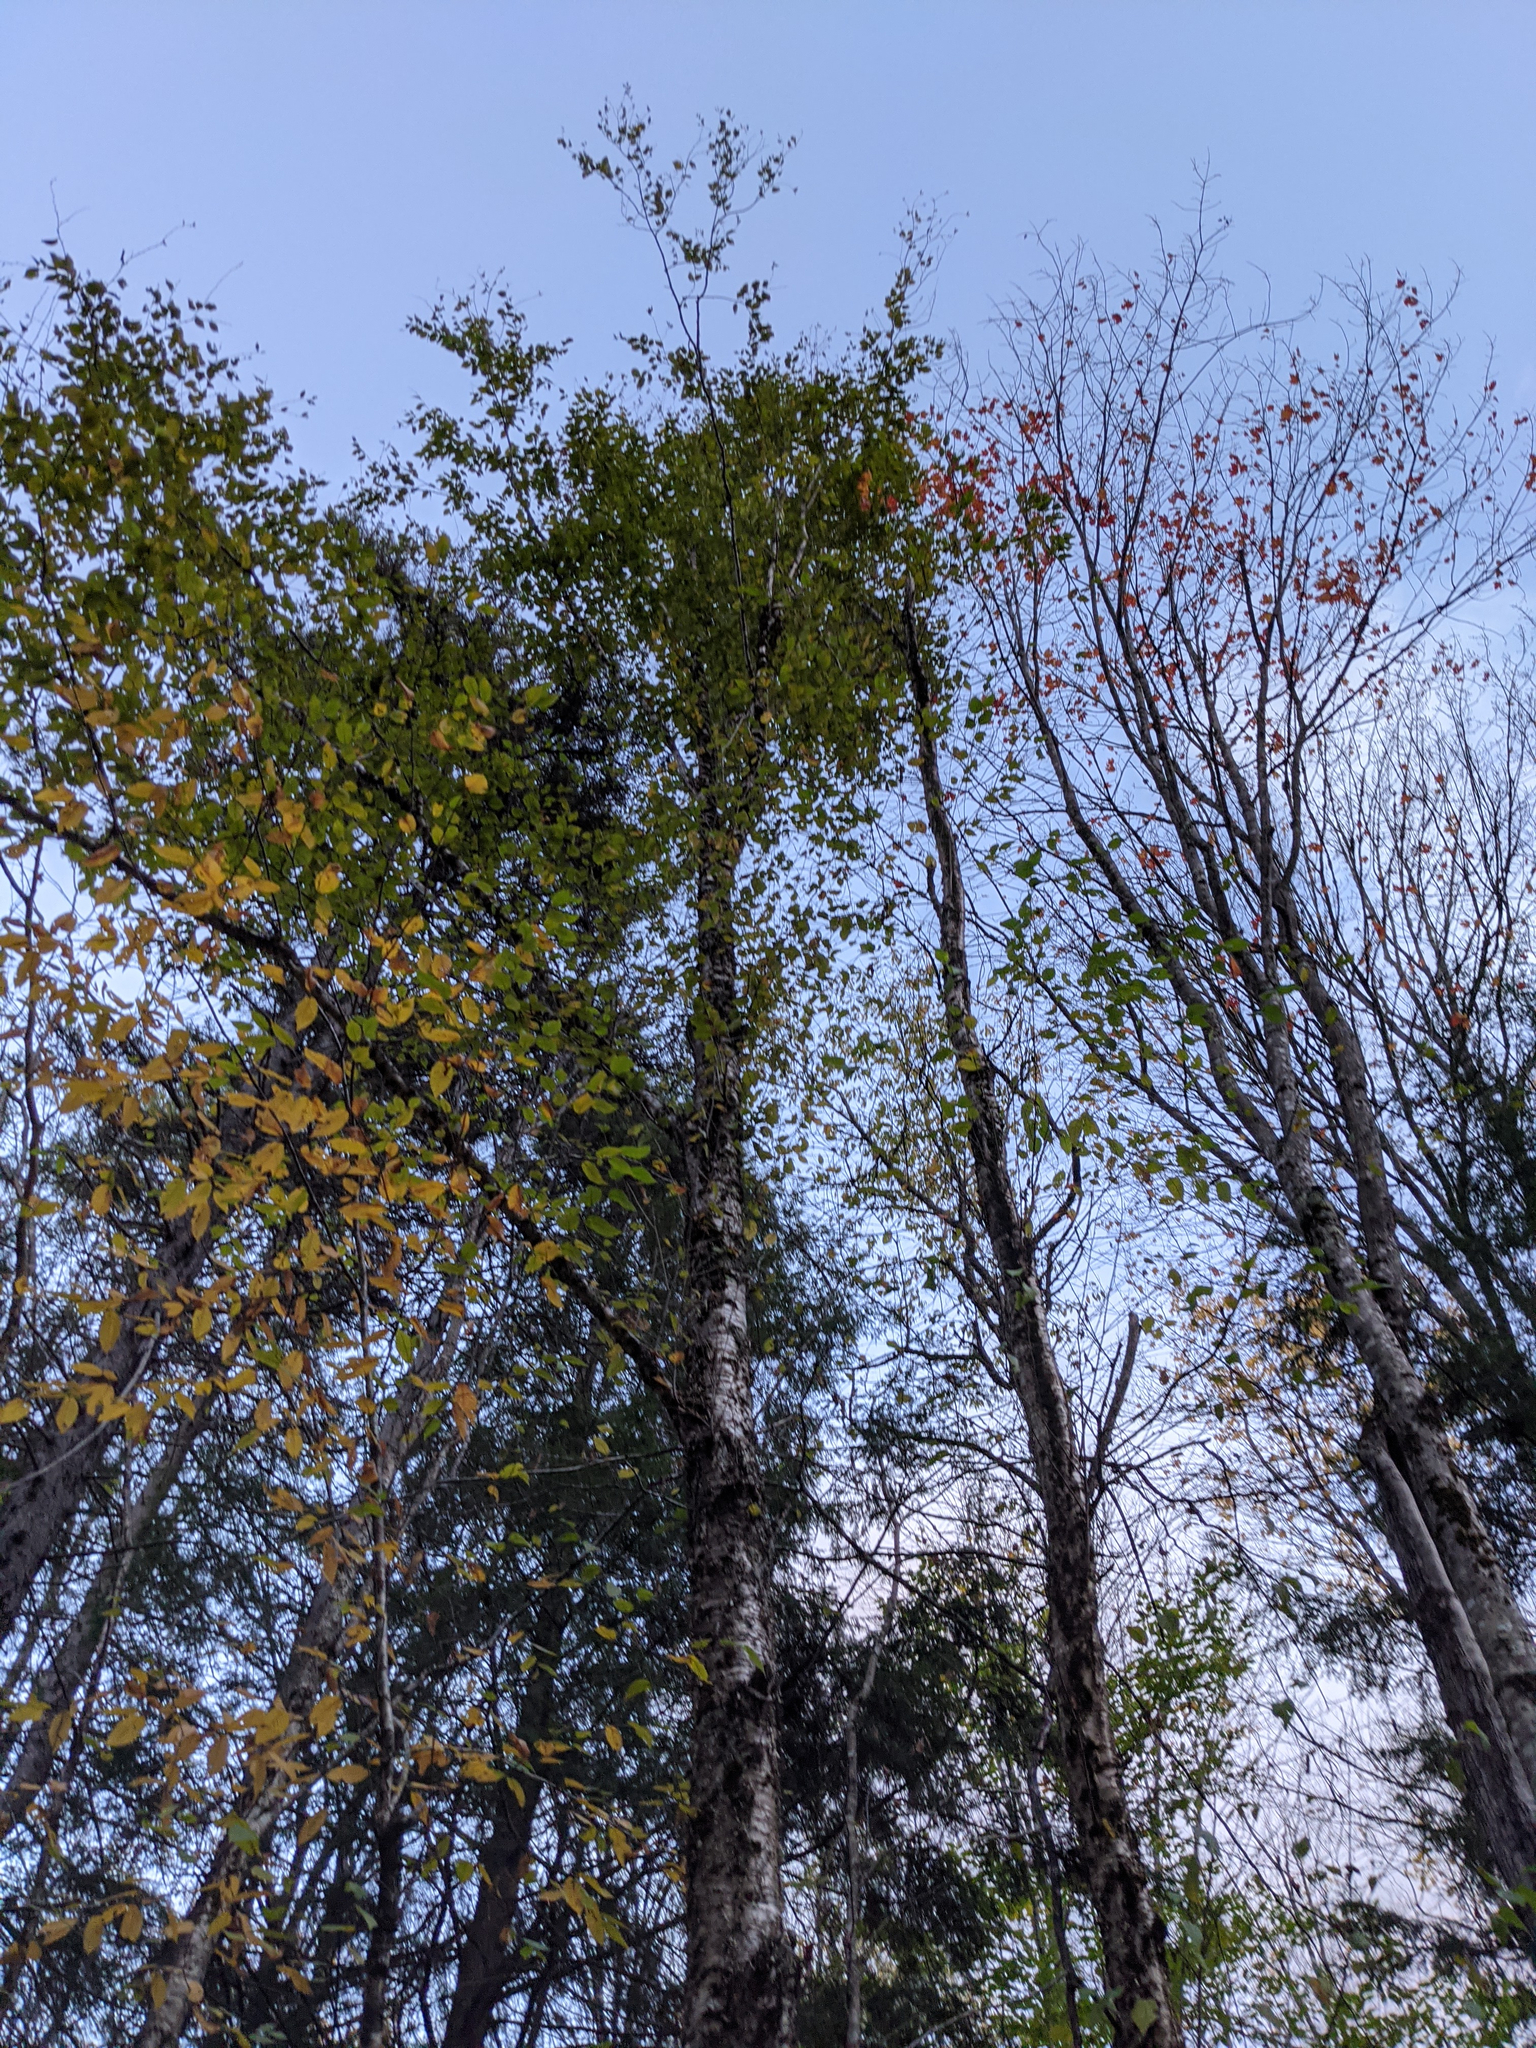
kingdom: Plantae
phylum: Tracheophyta
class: Magnoliopsida
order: Fagales
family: Betulaceae
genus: Betula
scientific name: Betula alleghaniensis
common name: Yellow birch
